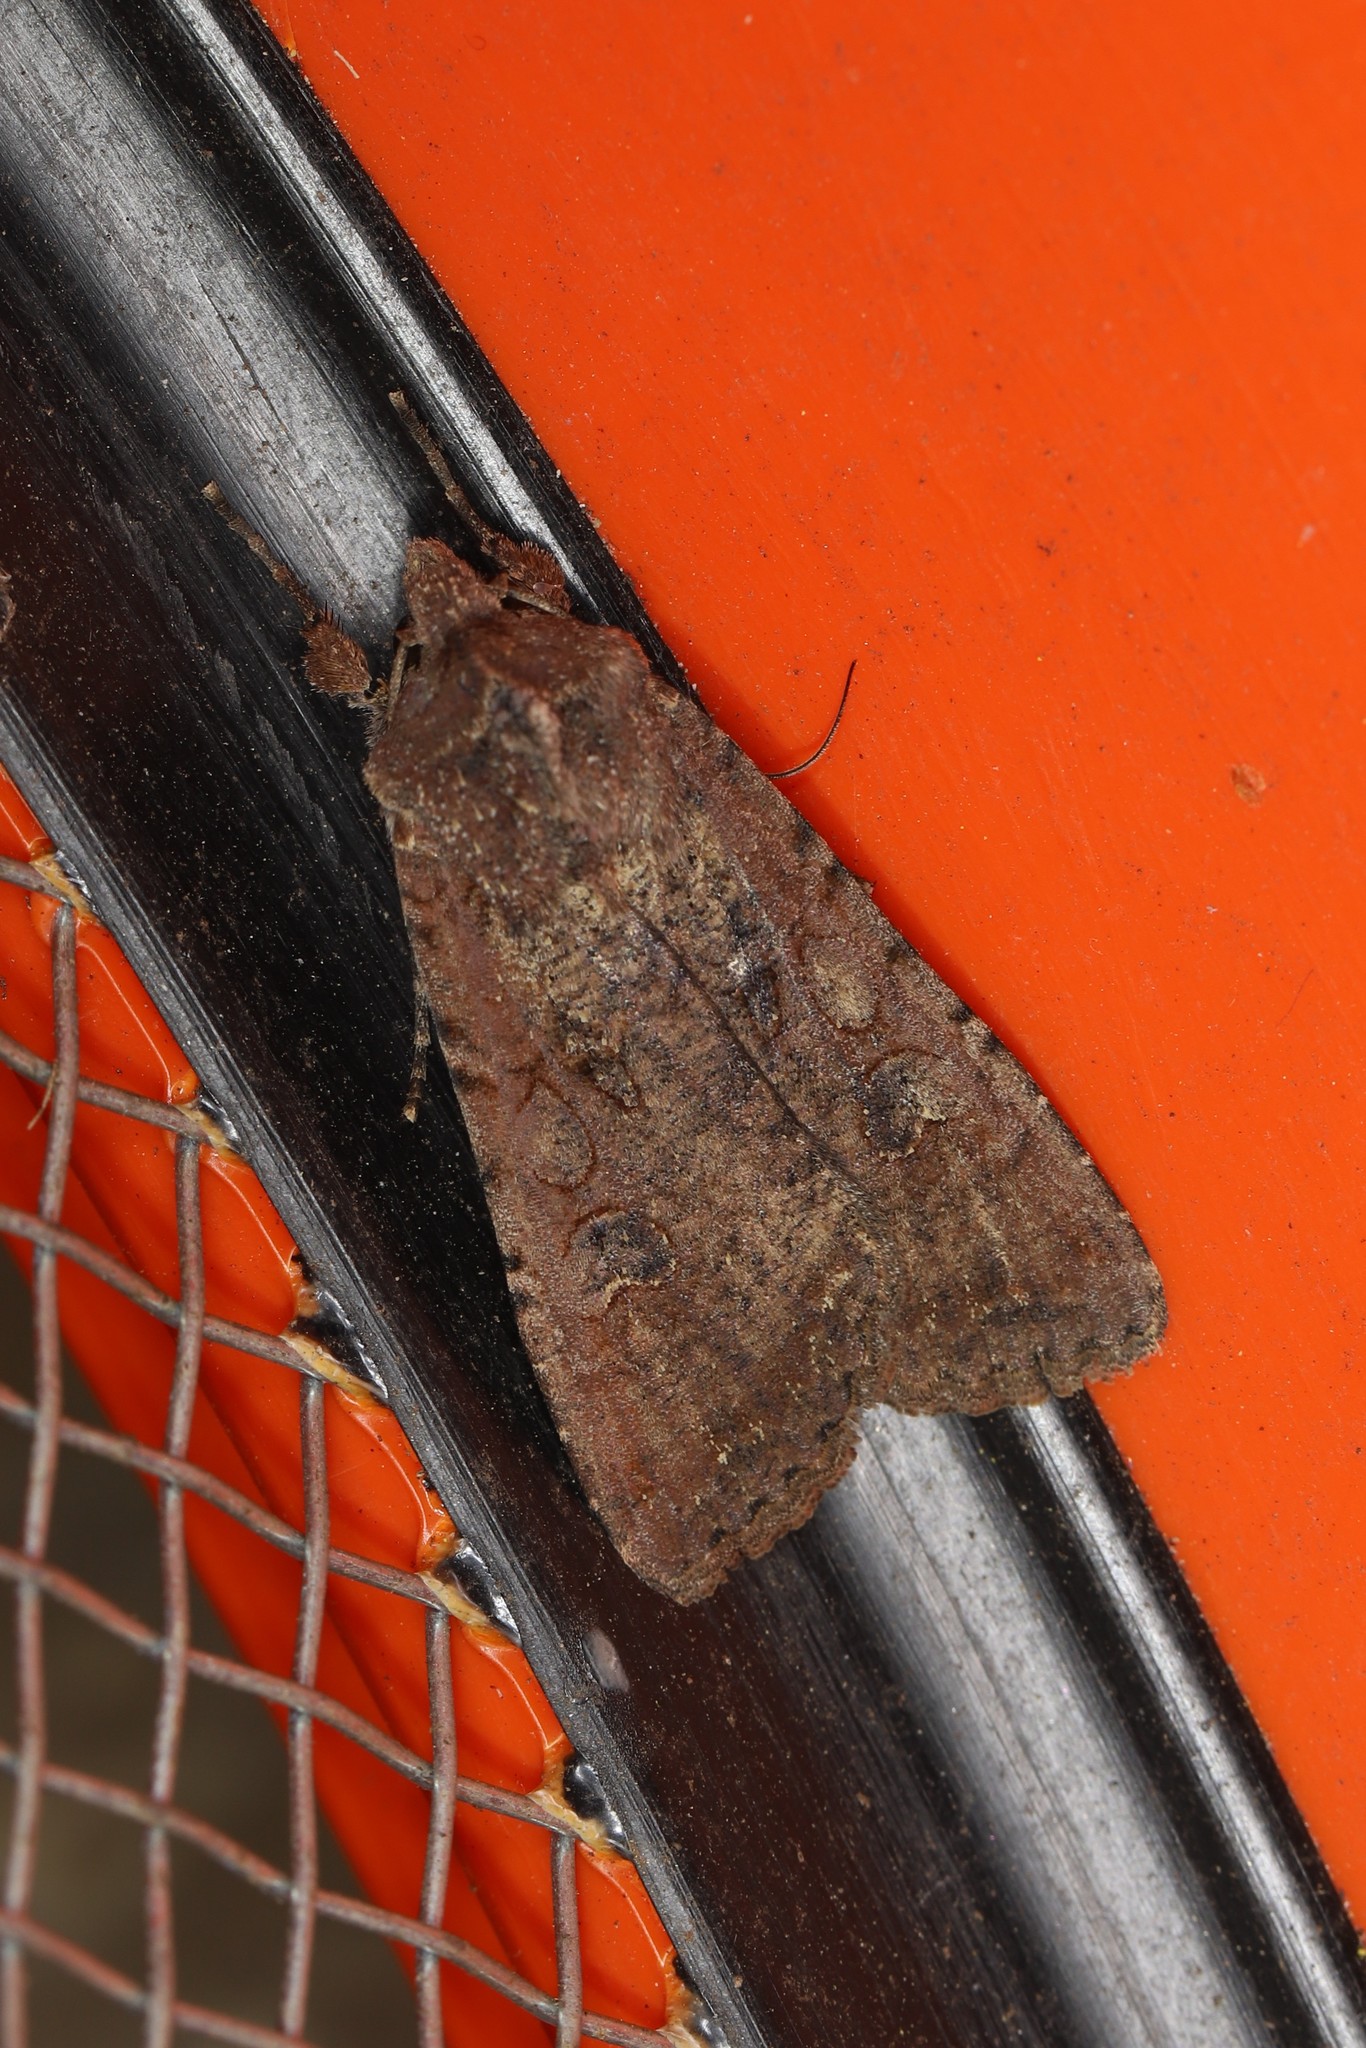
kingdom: Animalia
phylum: Arthropoda
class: Insecta
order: Lepidoptera
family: Noctuidae
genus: Peridroma
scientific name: Peridroma saucia
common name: Pearly underwing
